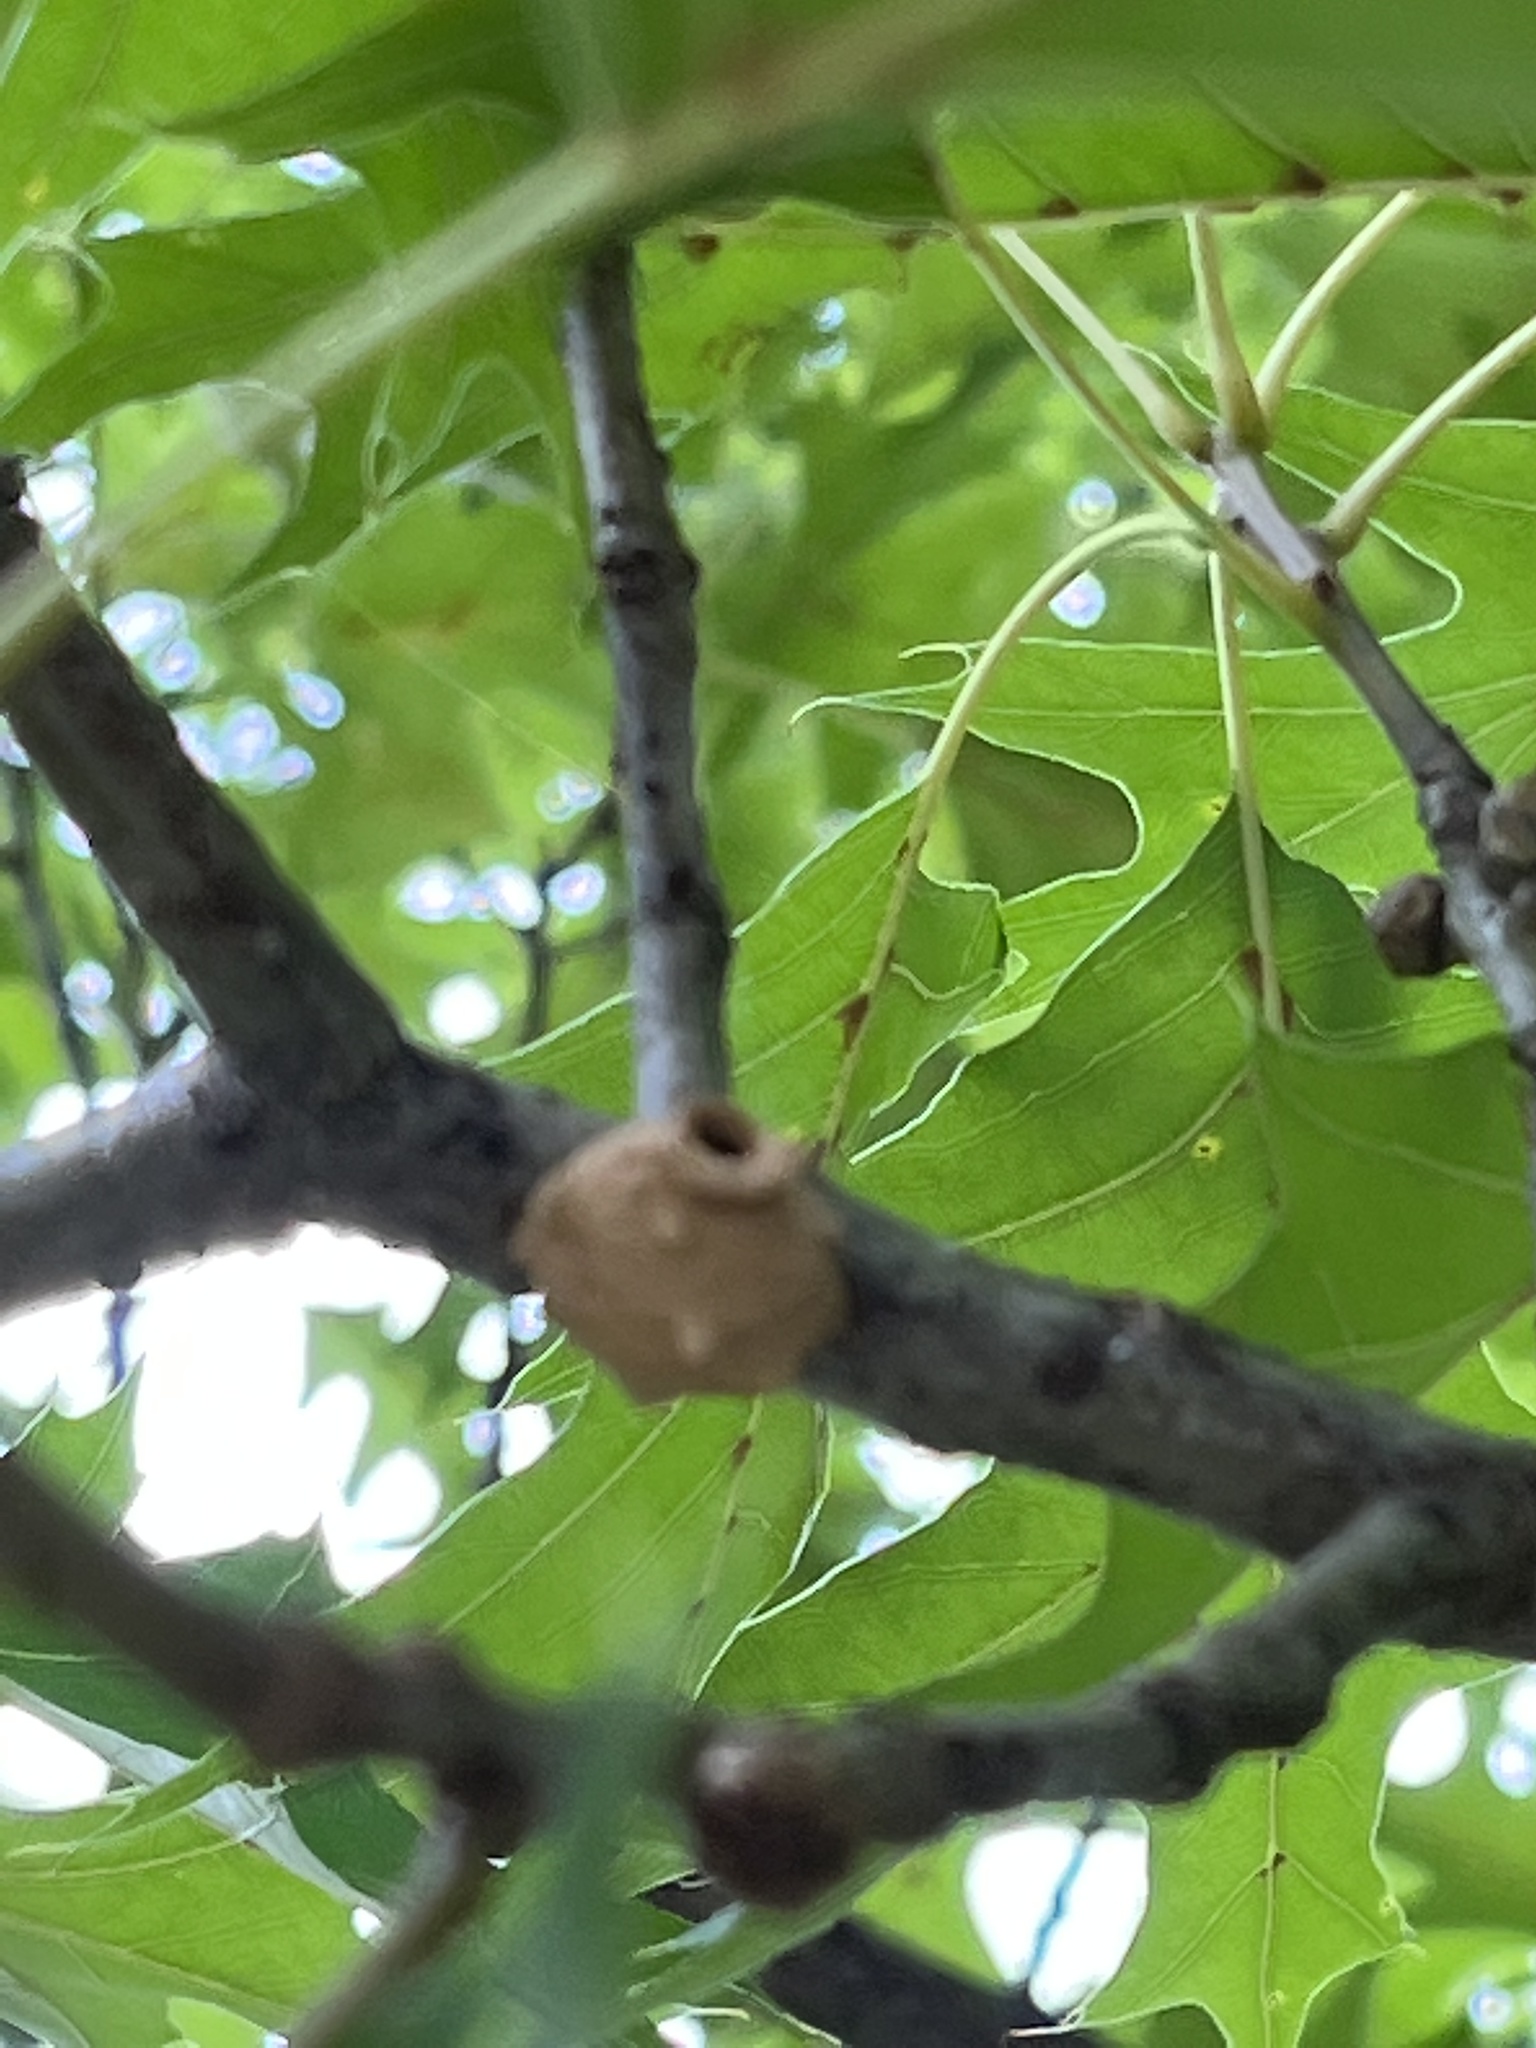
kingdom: Animalia
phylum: Arthropoda
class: Insecta
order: Hymenoptera
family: Vespidae
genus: Eumenes
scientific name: Eumenes fraternus
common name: Fraternal potter wasp
